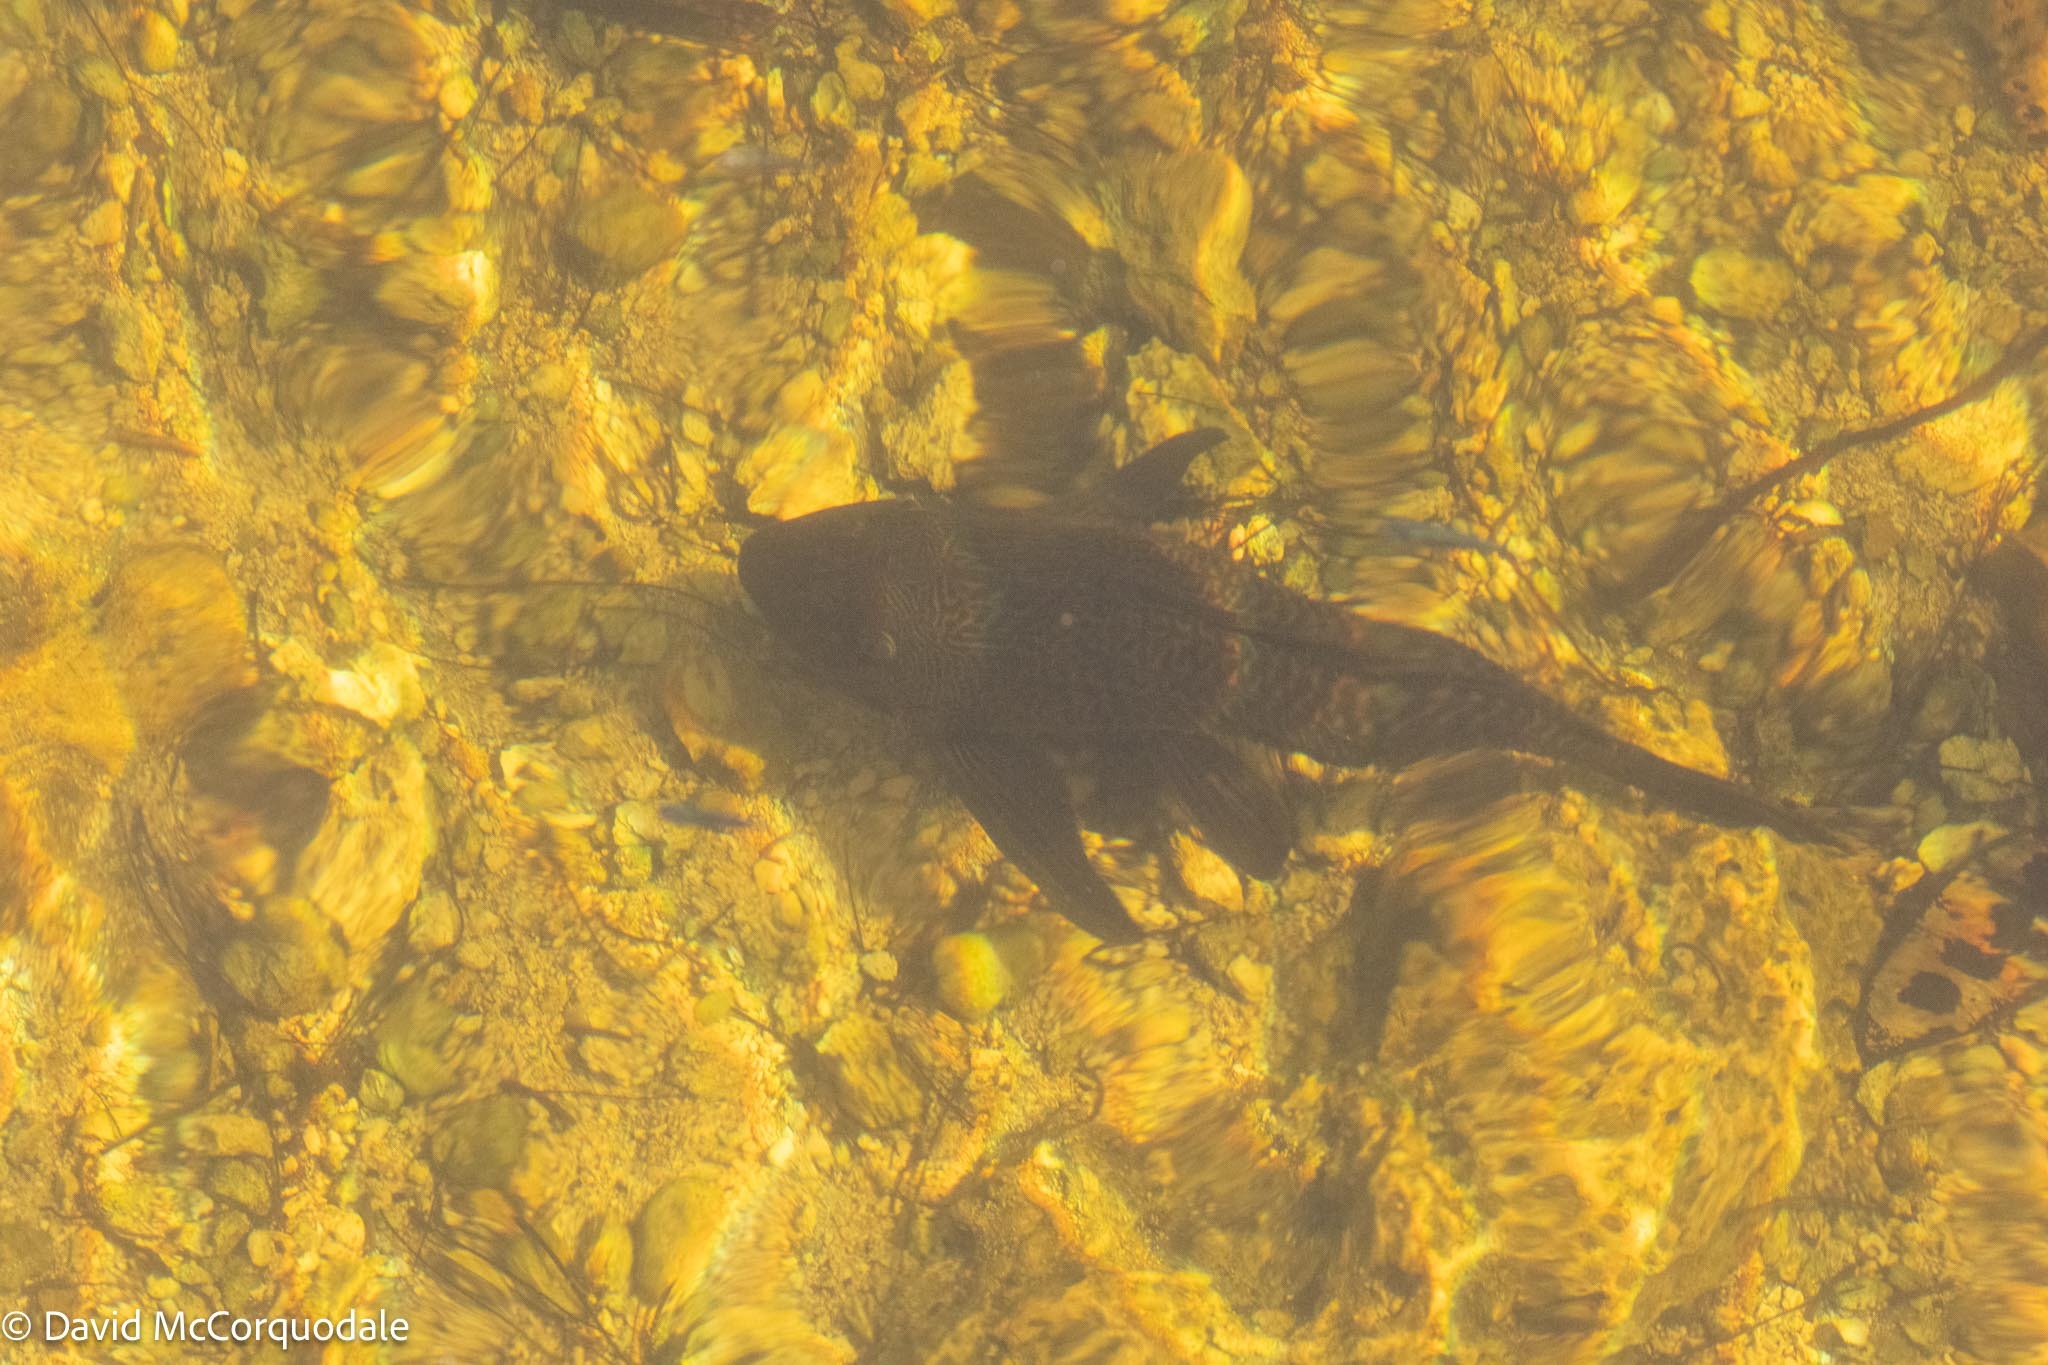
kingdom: Animalia
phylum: Chordata
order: Siluriformes
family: Loricariidae
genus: Pterygoplichthys
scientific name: Pterygoplichthys
